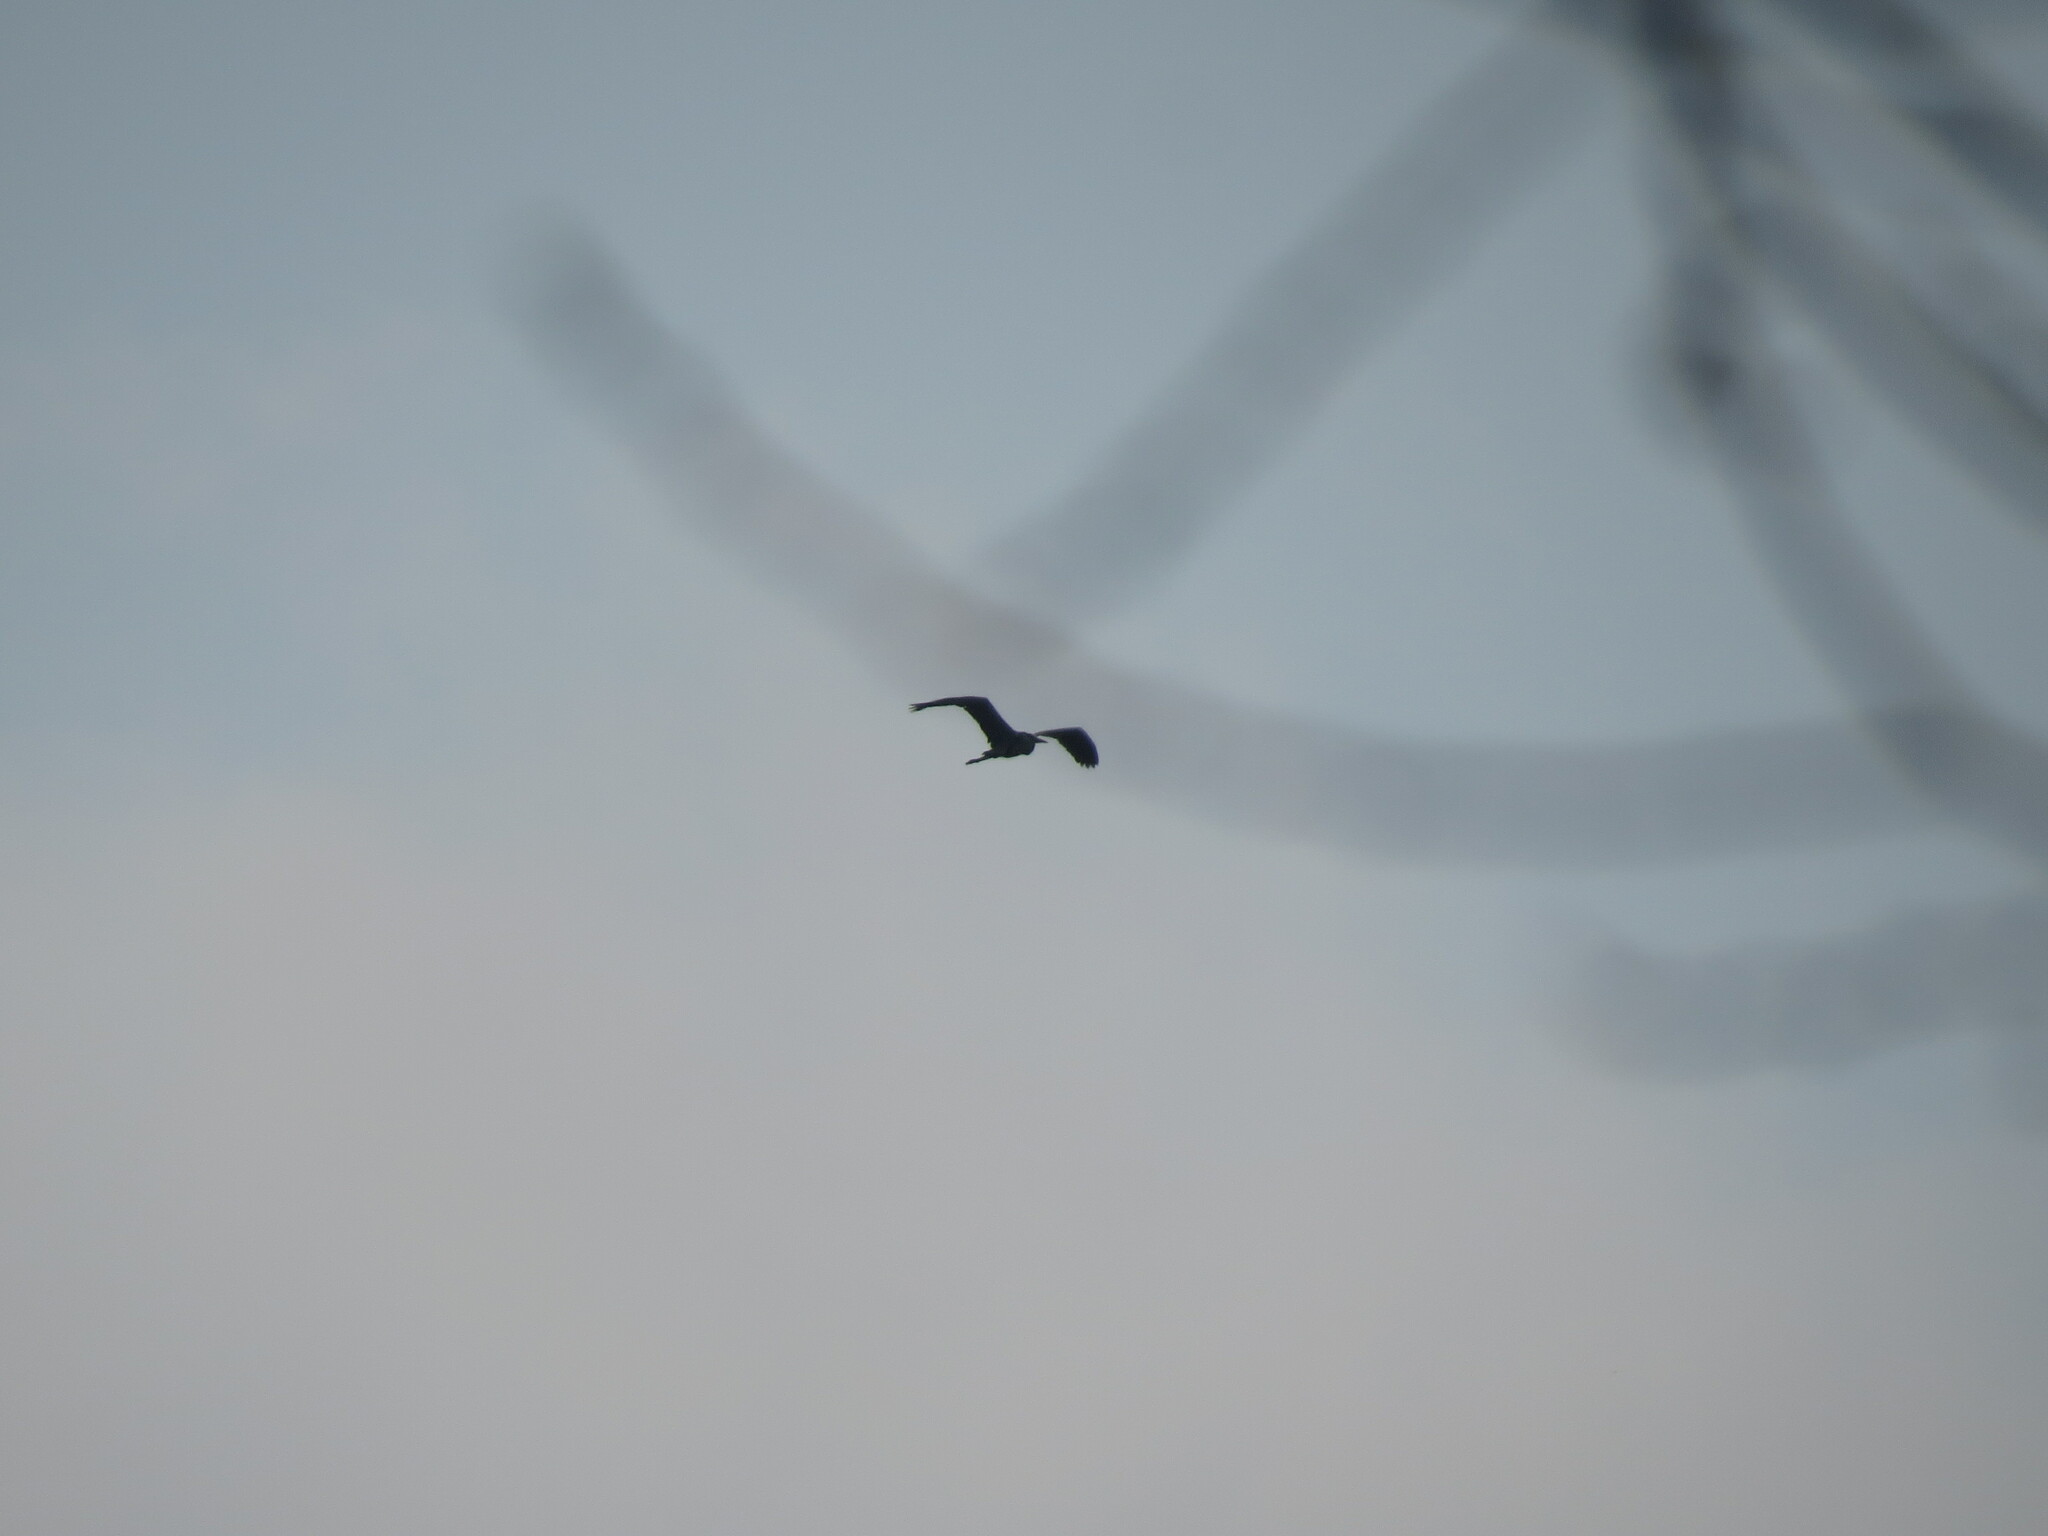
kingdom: Animalia
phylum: Chordata
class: Aves
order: Pelecaniformes
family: Ardeidae
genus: Ardea
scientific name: Ardea cinerea
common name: Grey heron
